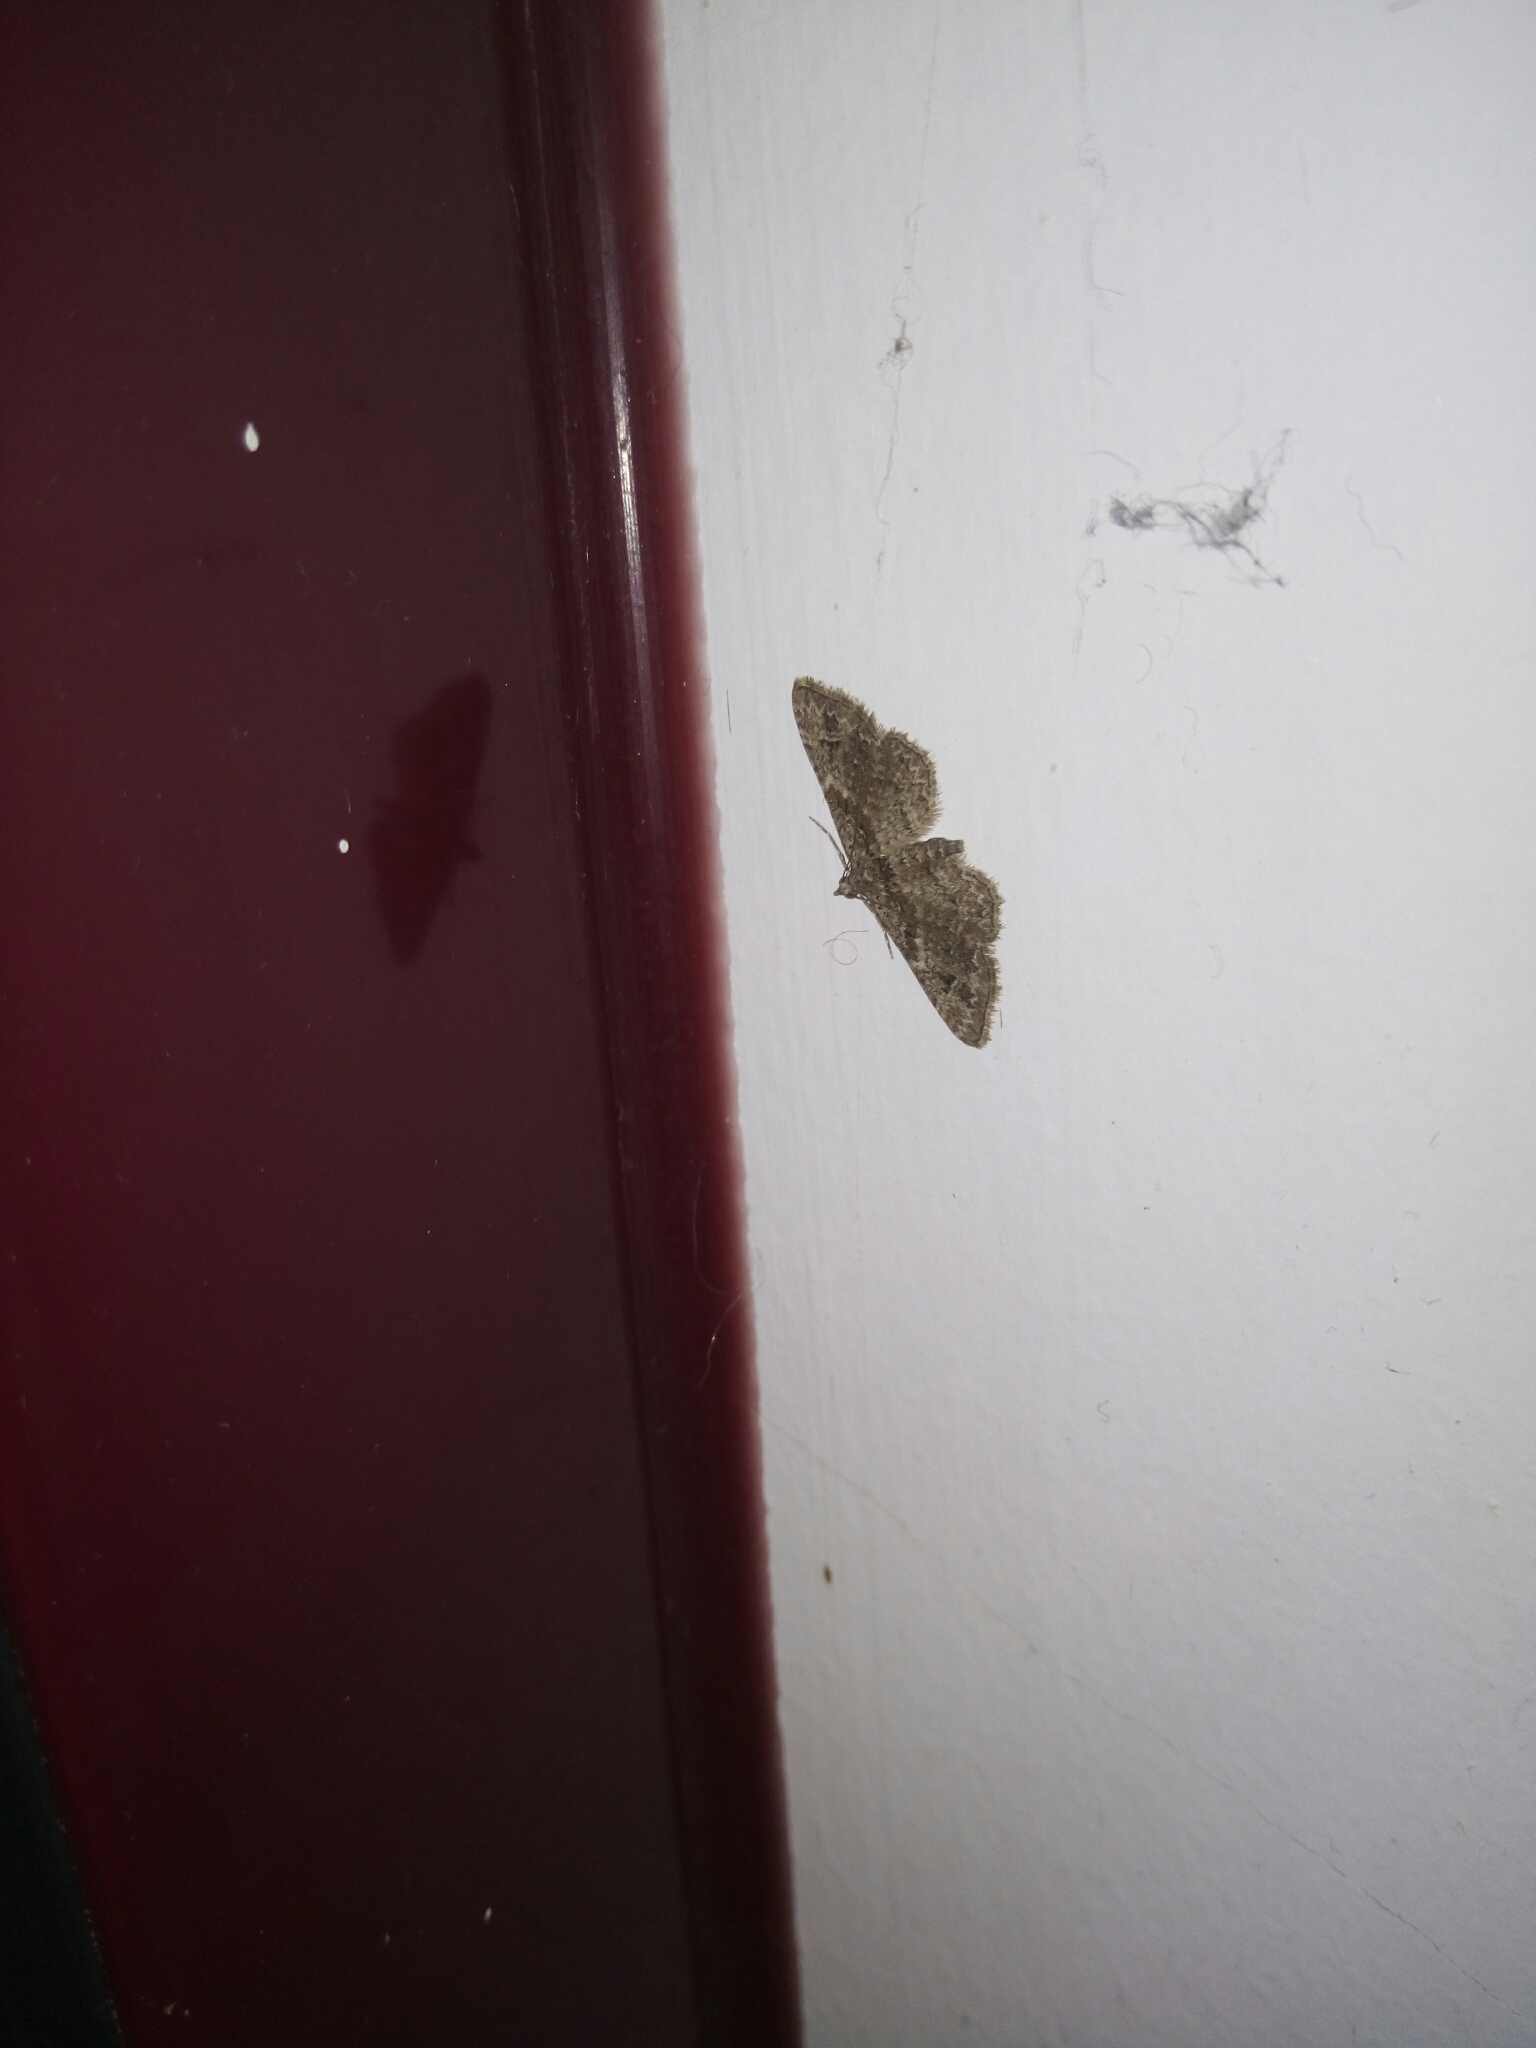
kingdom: Animalia
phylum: Arthropoda
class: Insecta
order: Lepidoptera
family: Geometridae
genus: Gymnoscelis
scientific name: Gymnoscelis rufifasciata
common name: Double-striped pug
